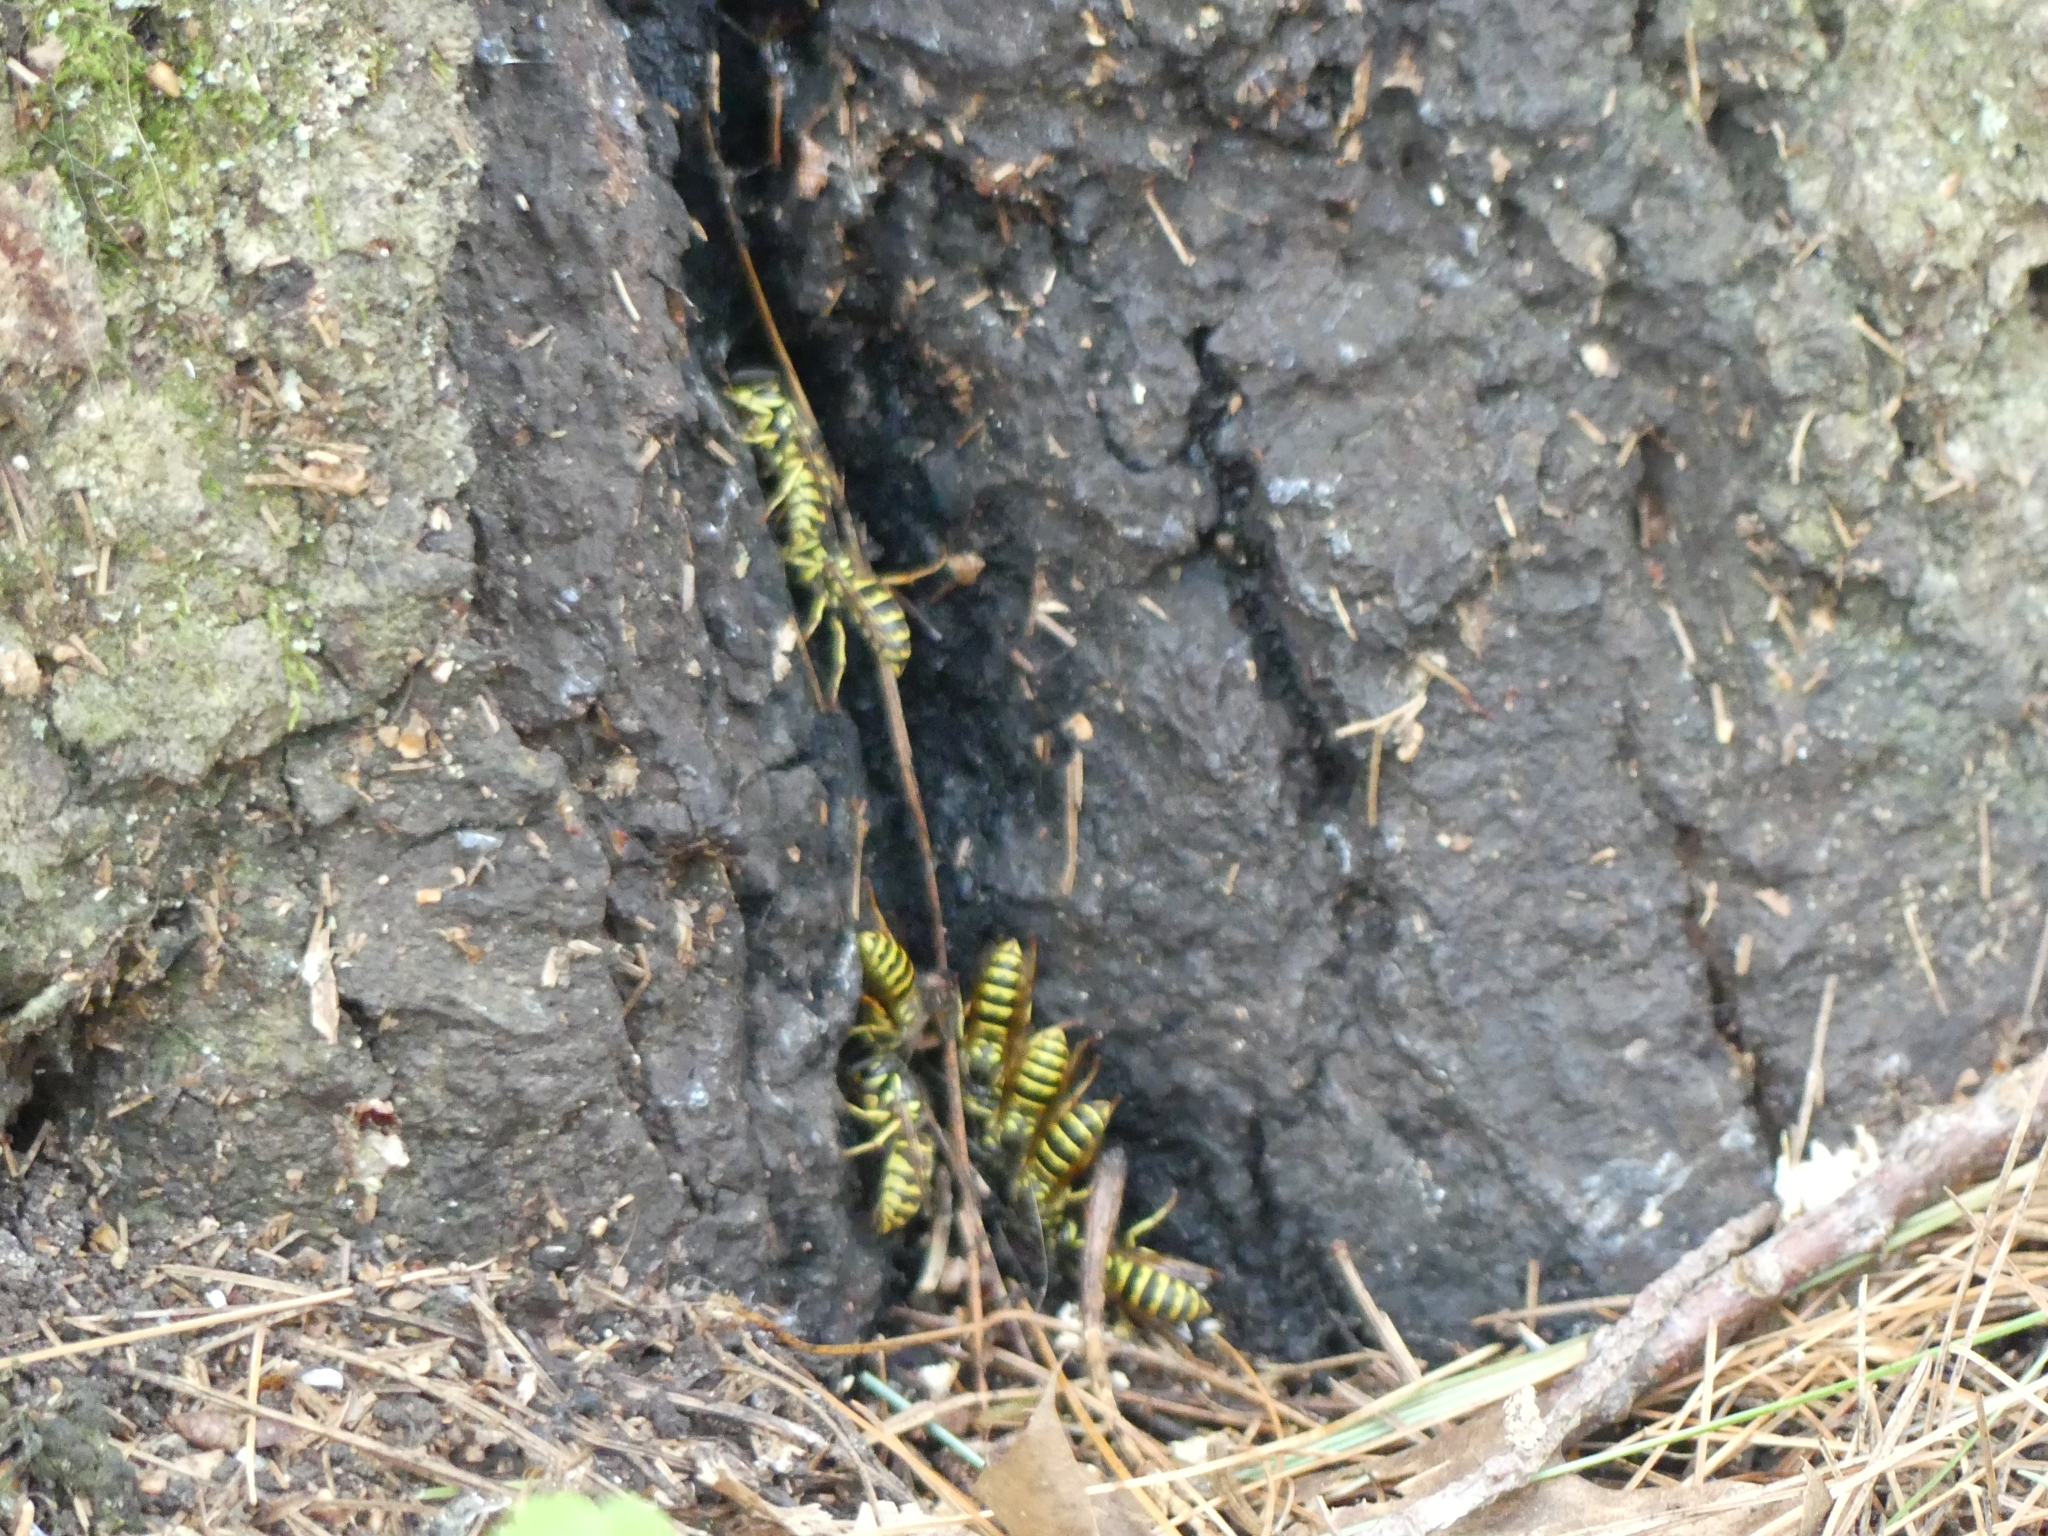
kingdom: Animalia
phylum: Arthropoda
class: Insecta
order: Hymenoptera
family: Vespidae
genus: Vespula
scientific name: Vespula flavopilosa
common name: Downy yellowjacket
